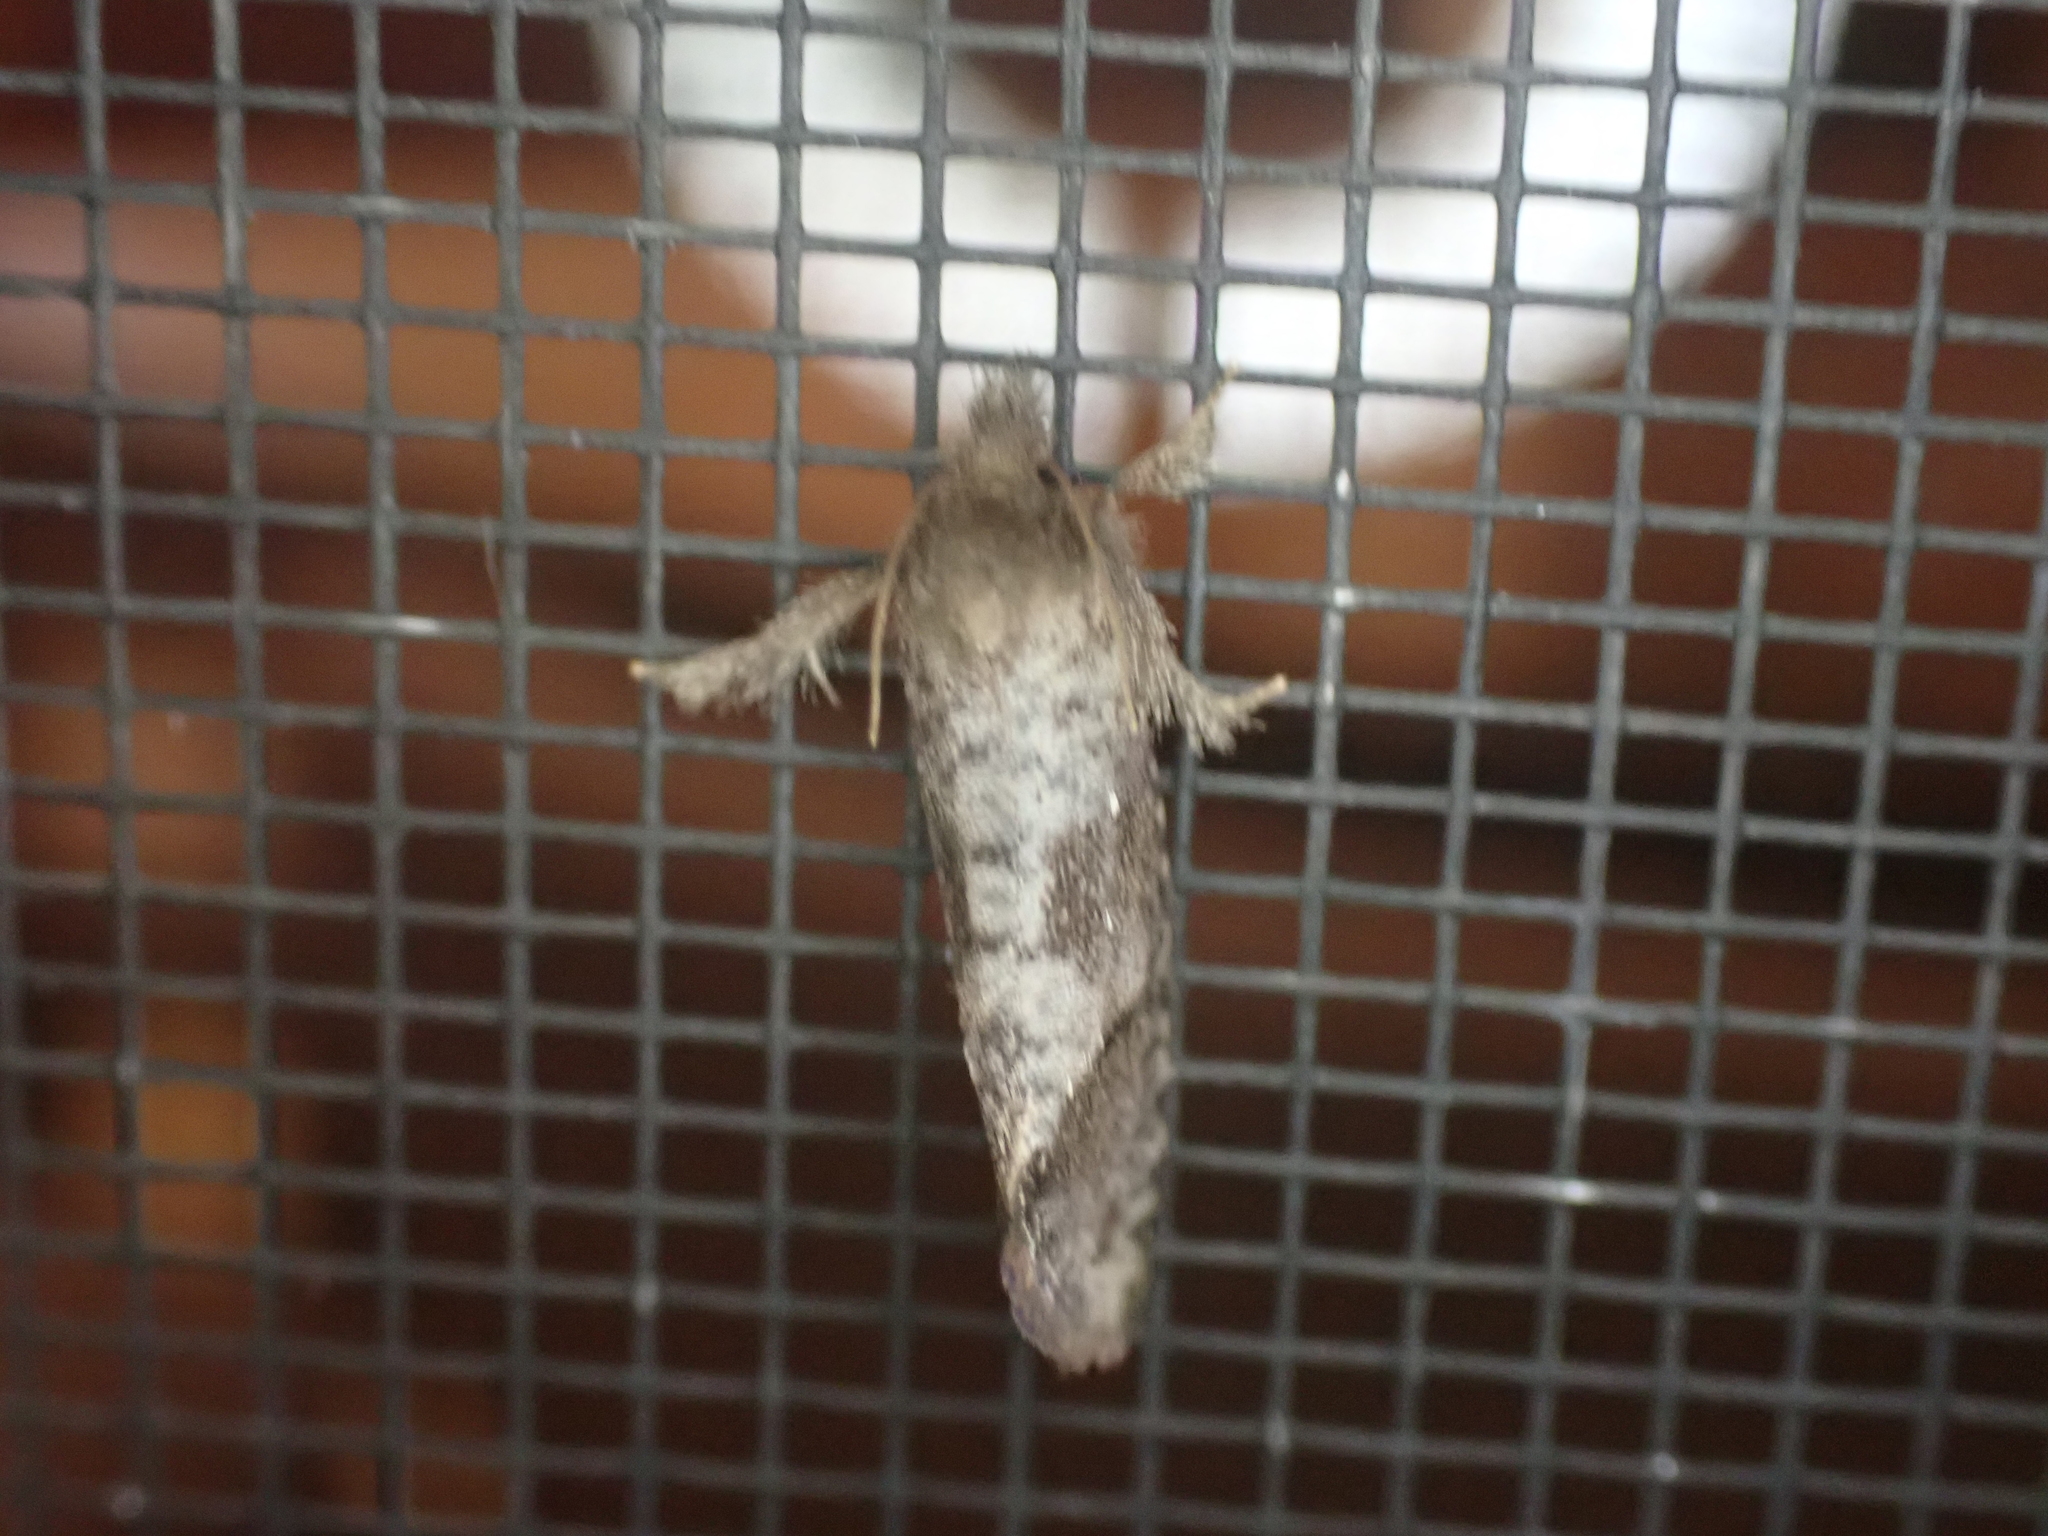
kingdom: Animalia
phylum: Arthropoda
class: Insecta
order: Lepidoptera
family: Tineidae
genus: Acrolophus
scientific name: Acrolophus texanella
